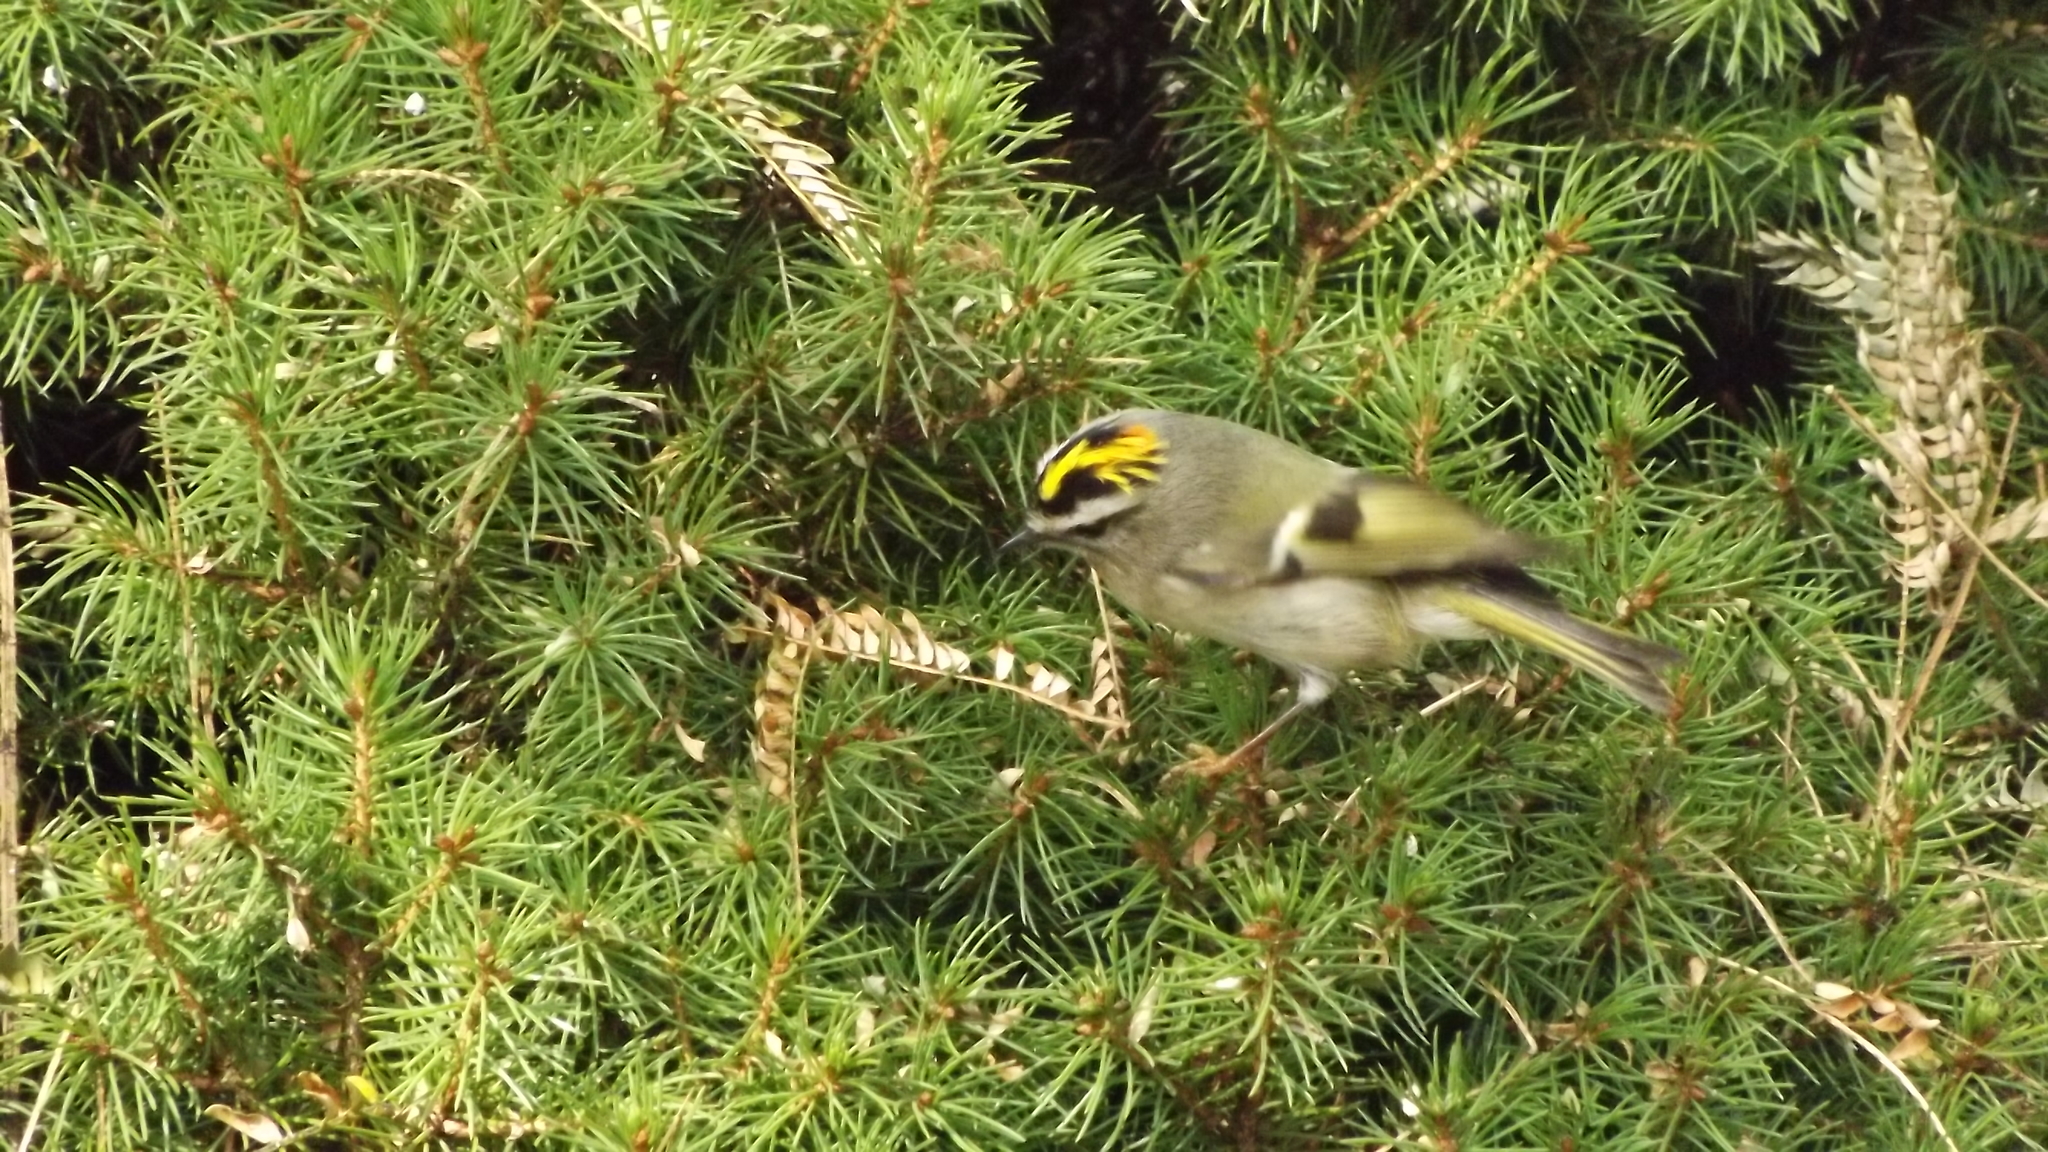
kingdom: Animalia
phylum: Chordata
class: Aves
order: Passeriformes
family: Regulidae
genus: Regulus
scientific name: Regulus satrapa
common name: Golden-crowned kinglet
